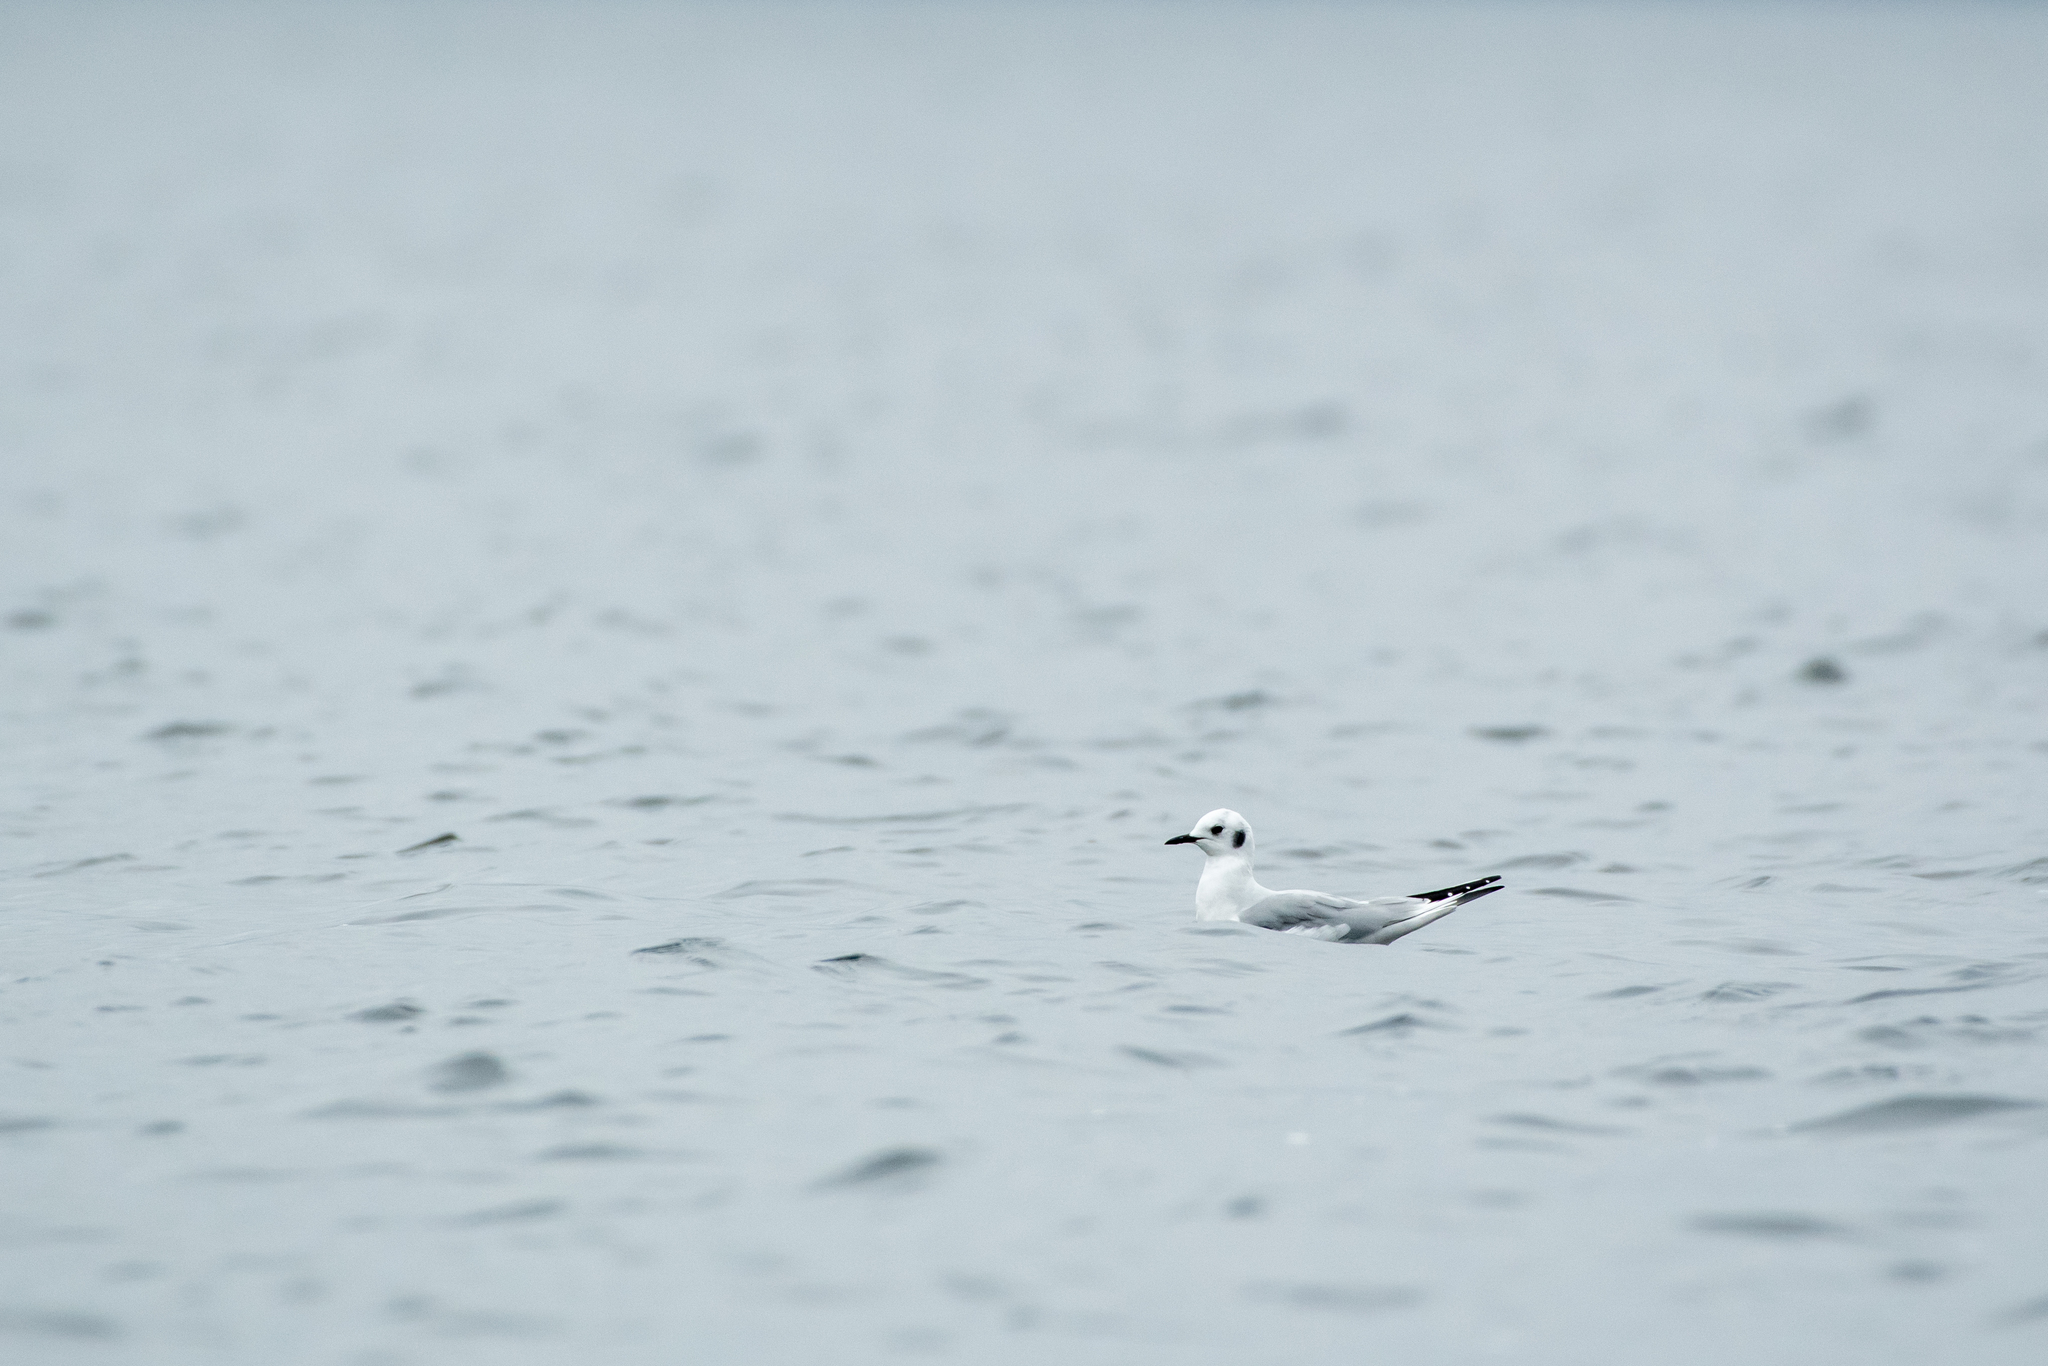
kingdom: Animalia
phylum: Chordata
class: Aves
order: Charadriiformes
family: Laridae
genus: Chroicocephalus
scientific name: Chroicocephalus philadelphia
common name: Bonaparte's gull
